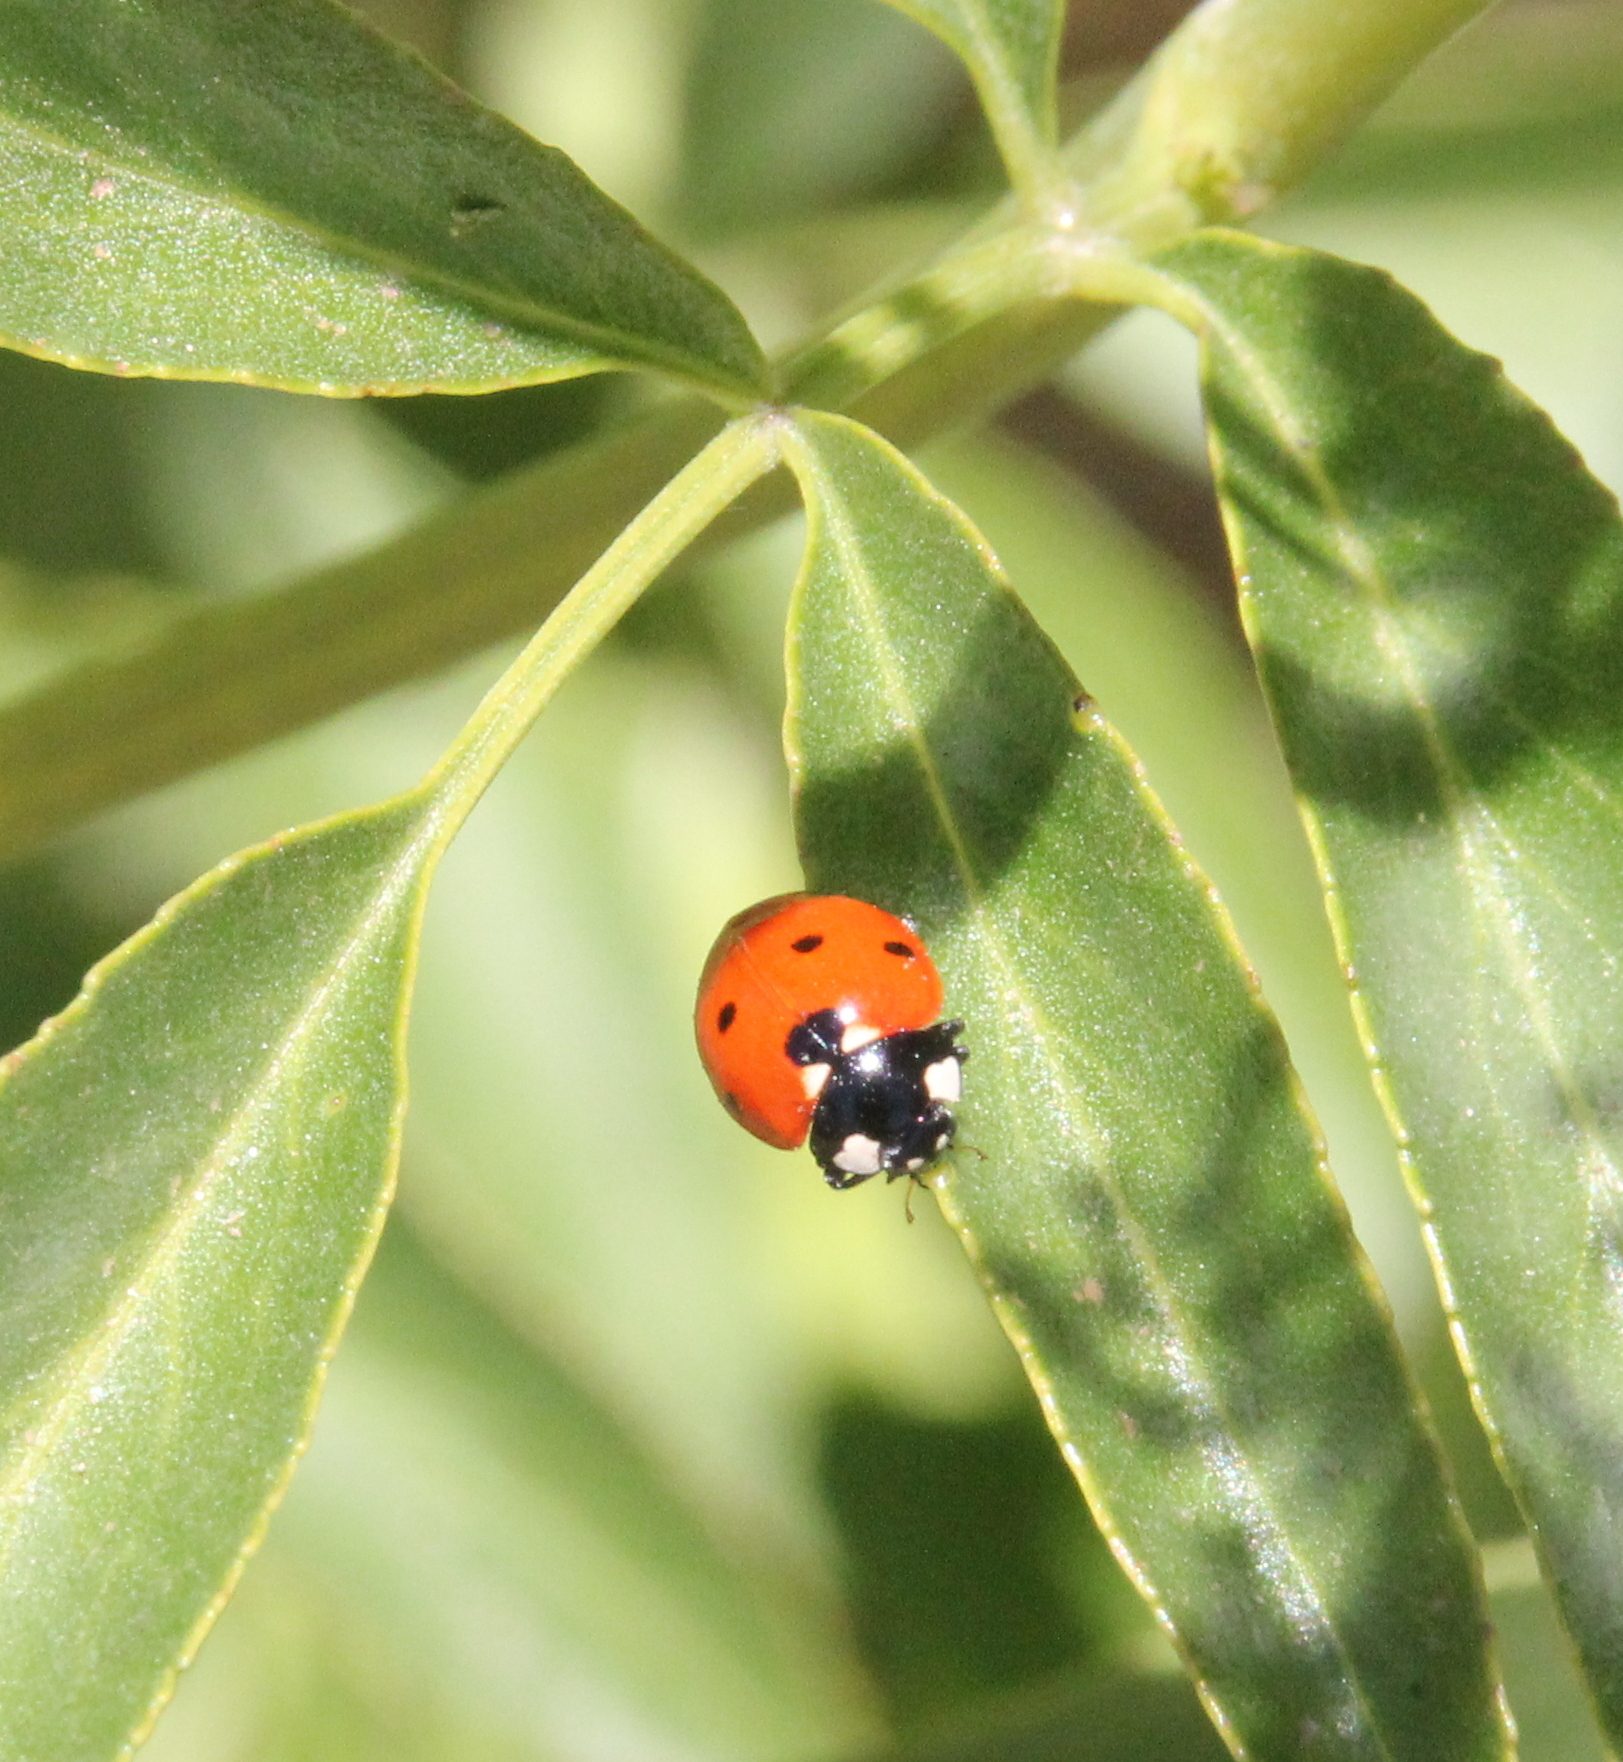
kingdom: Animalia
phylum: Arthropoda
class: Insecta
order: Coleoptera
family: Coccinellidae
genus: Coccinella
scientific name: Coccinella septempunctata
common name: Sevenspotted lady beetle
